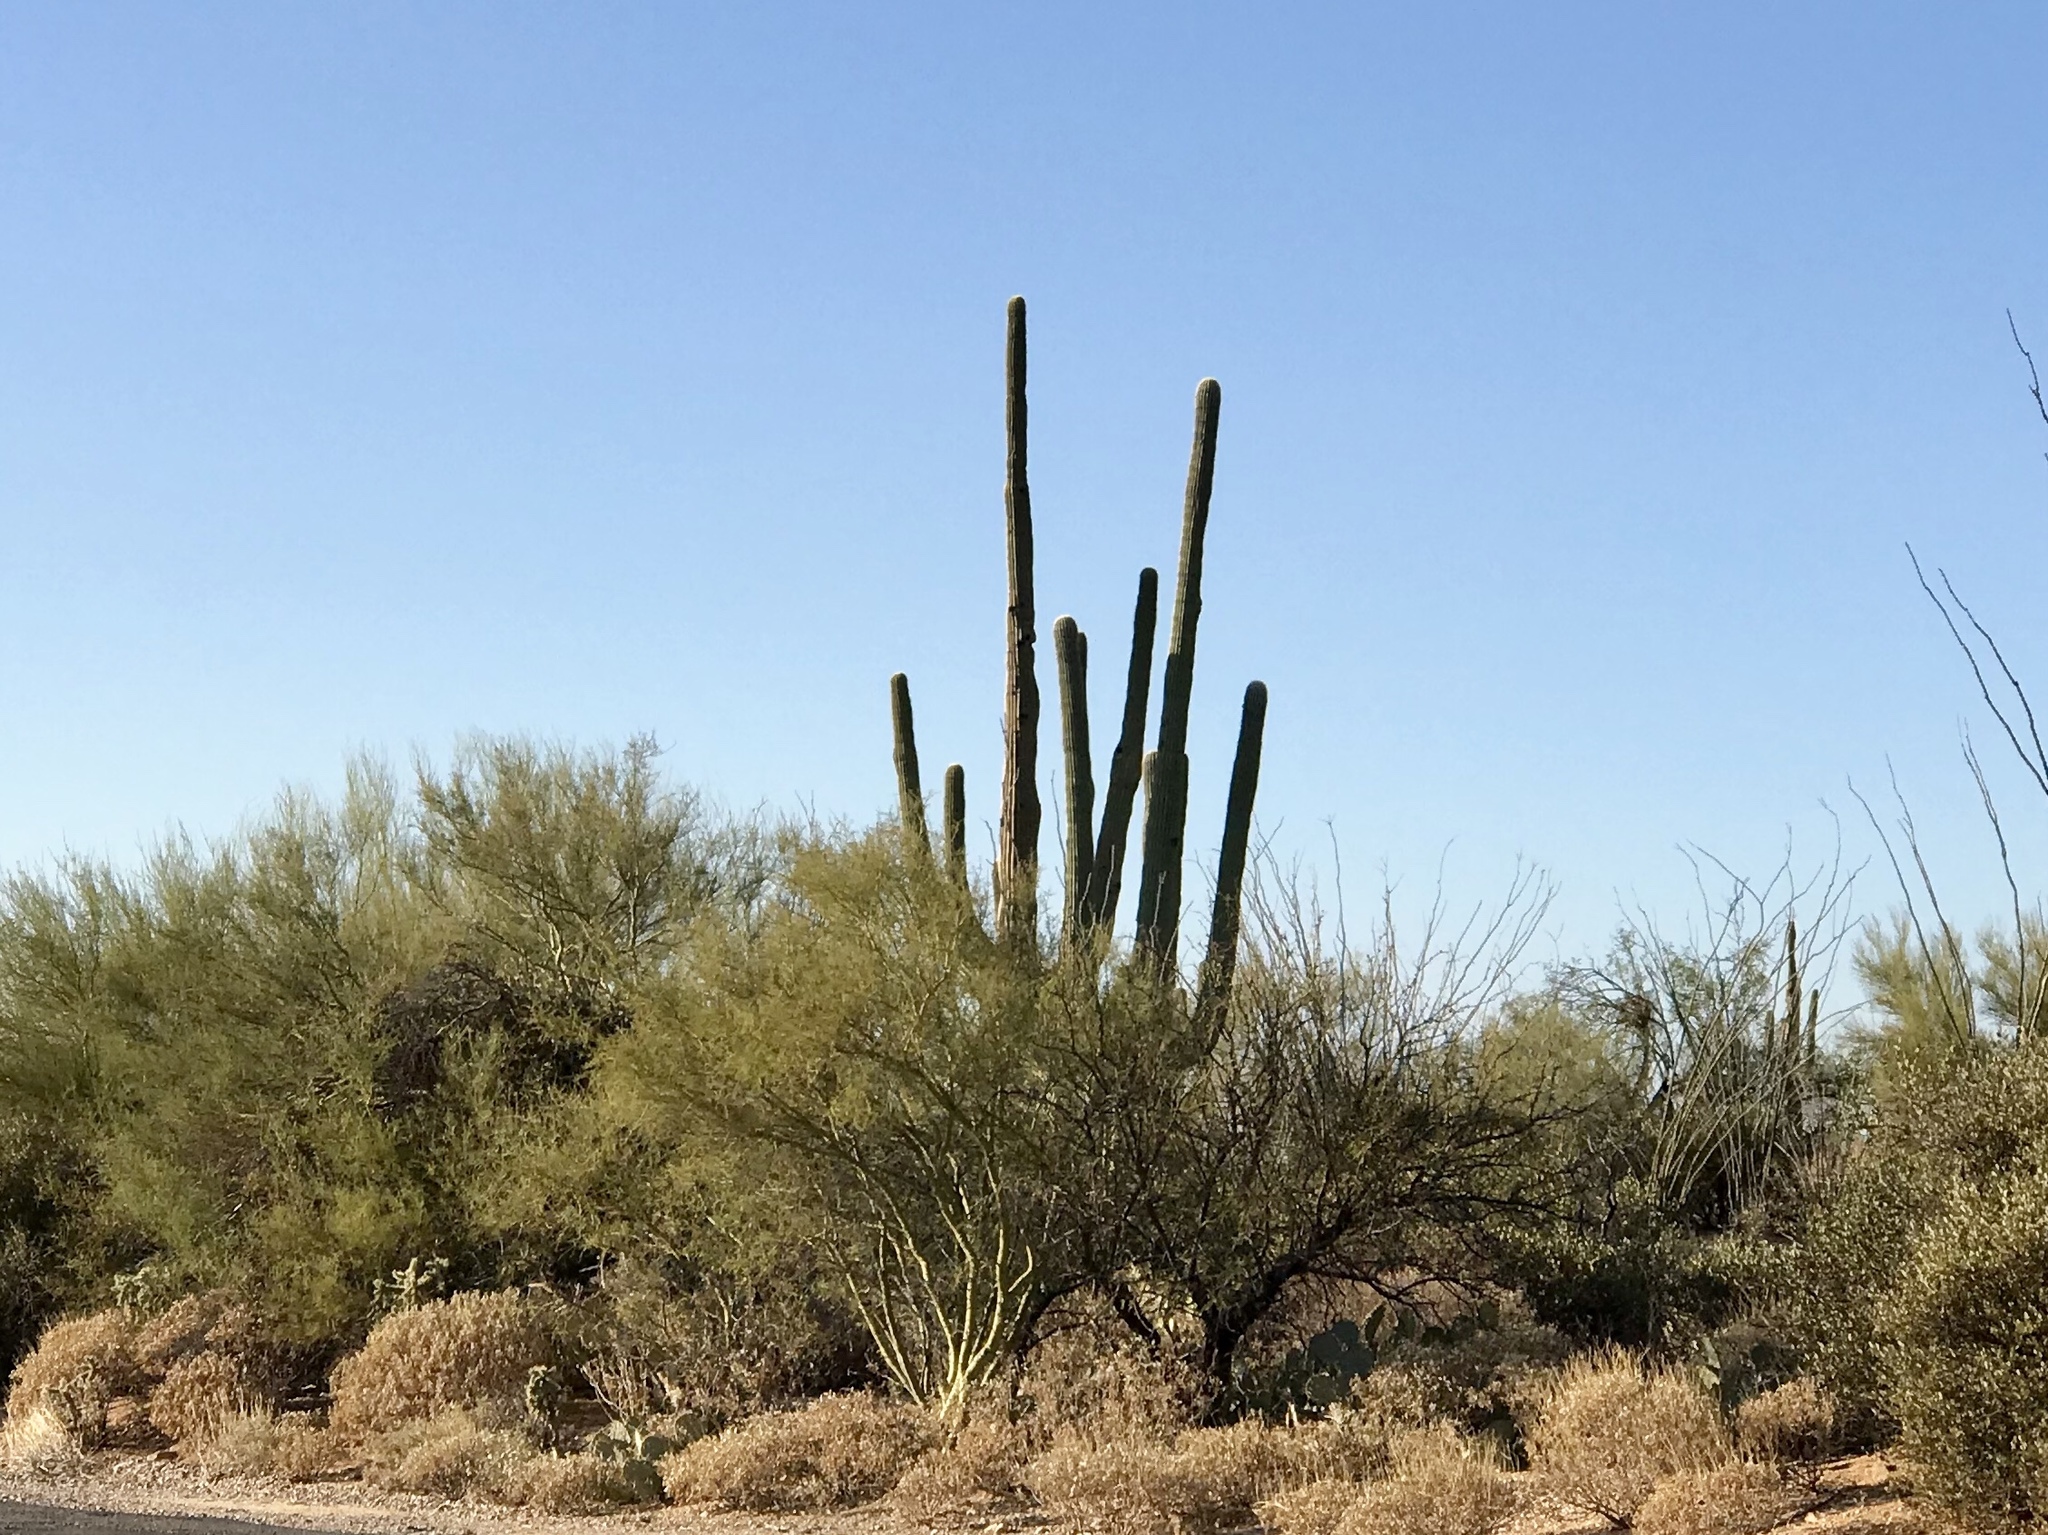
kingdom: Plantae
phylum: Tracheophyta
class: Magnoliopsida
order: Caryophyllales
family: Cactaceae
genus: Carnegiea
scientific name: Carnegiea gigantea
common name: Saguaro
